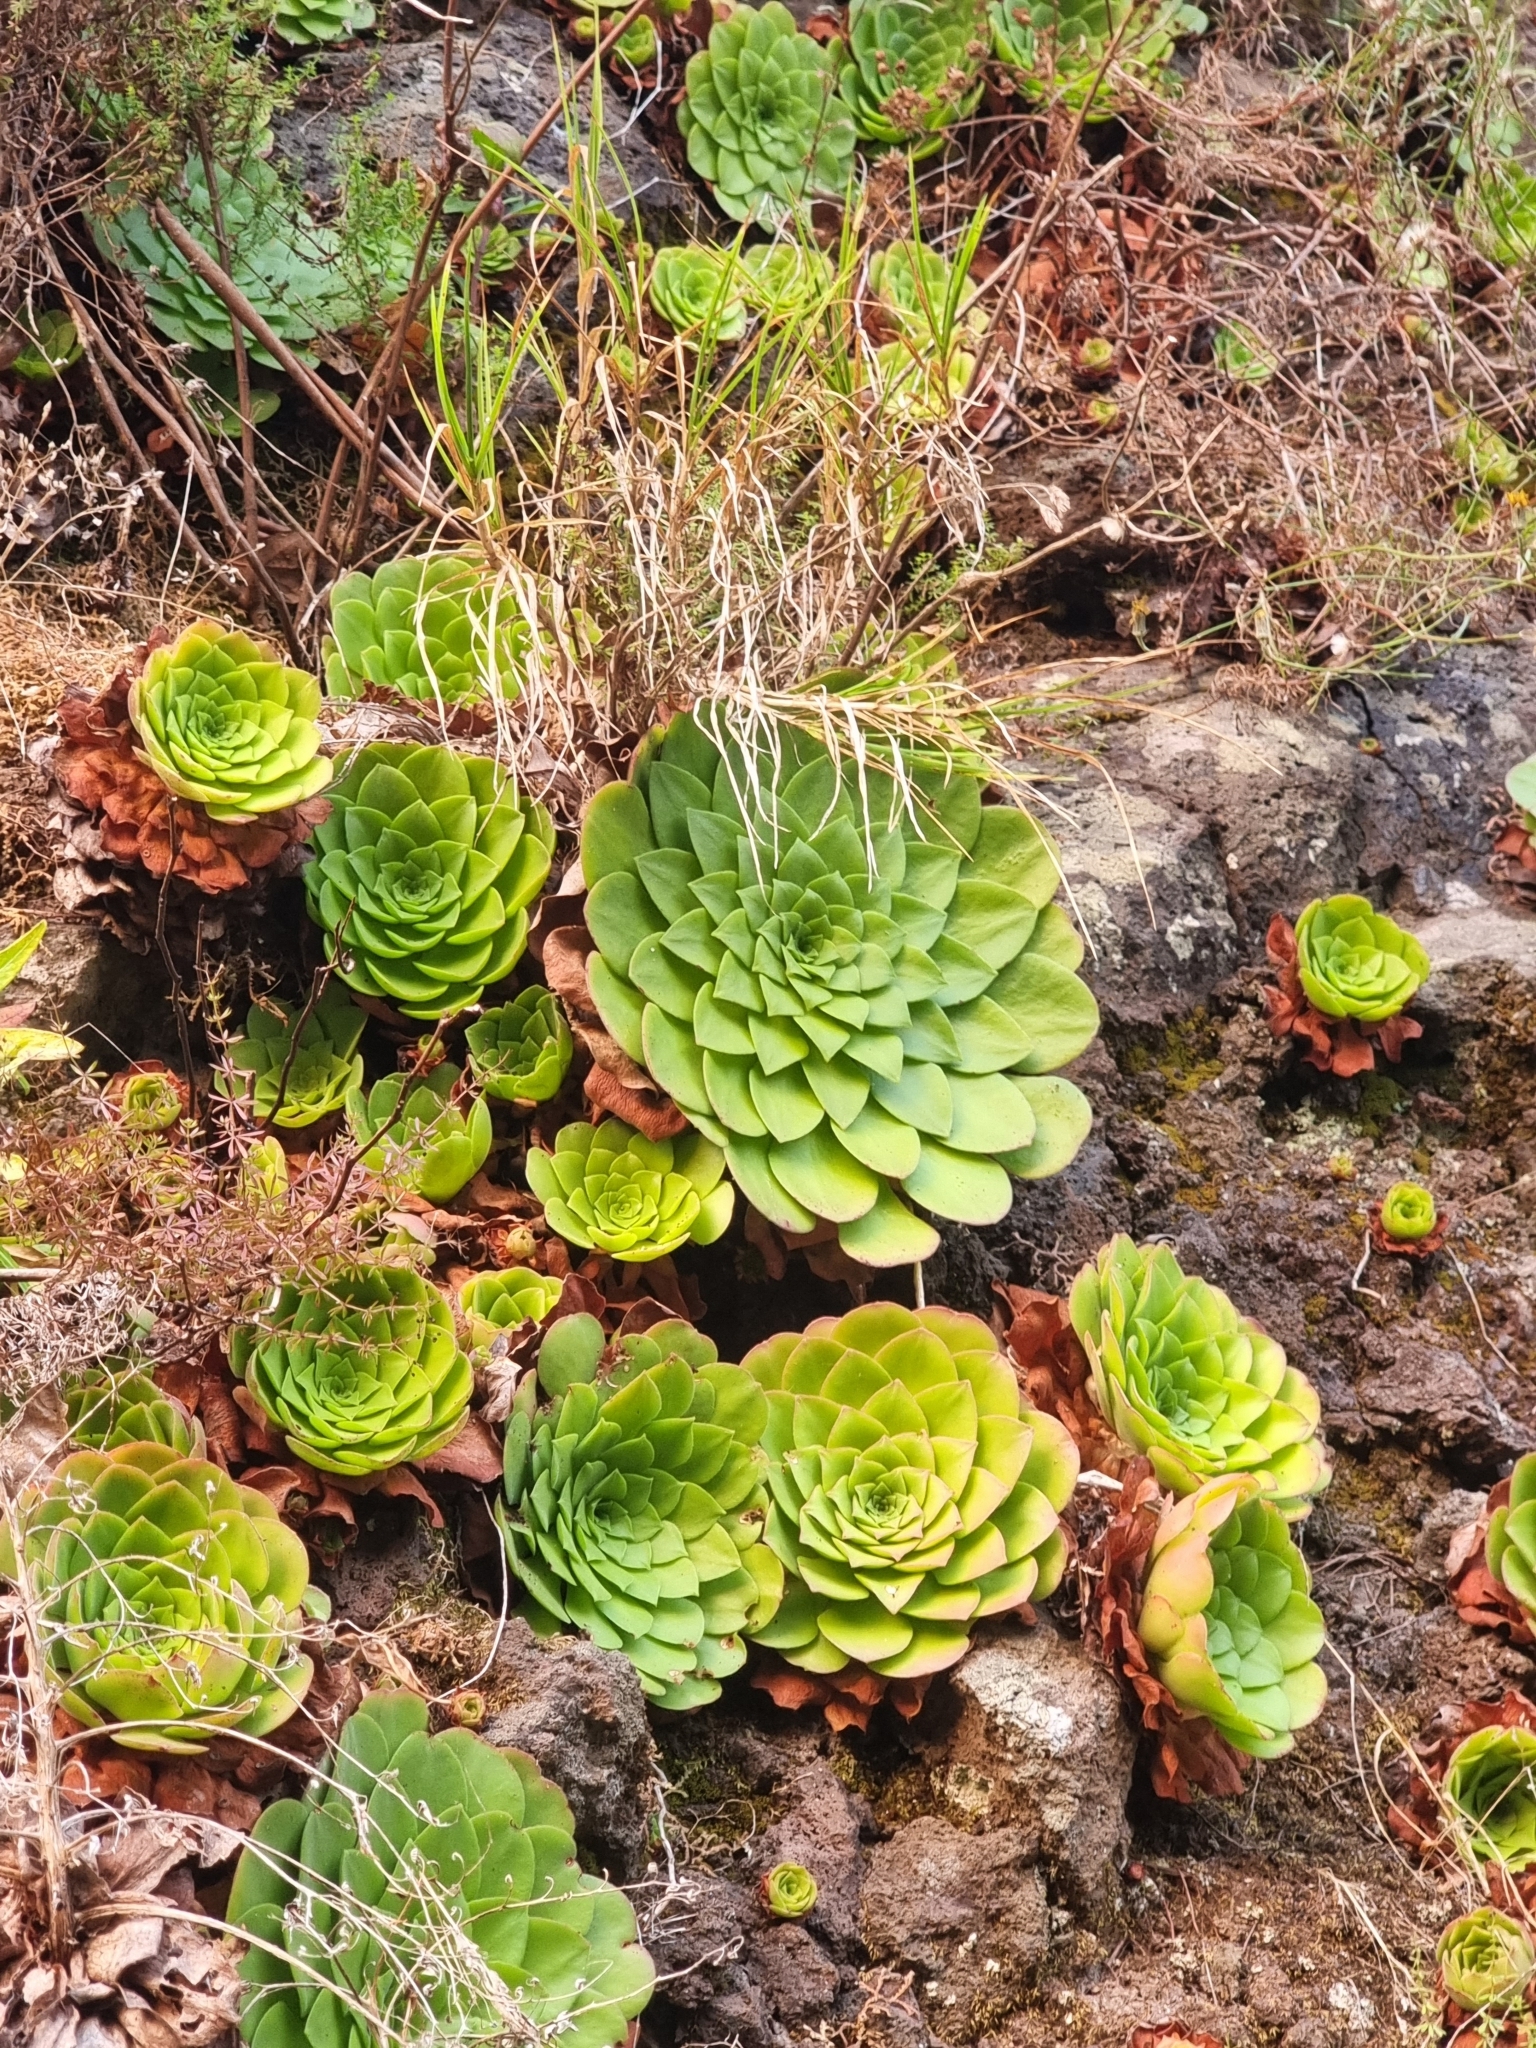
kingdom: Plantae
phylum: Tracheophyta
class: Magnoliopsida
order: Saxifragales
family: Crassulaceae
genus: Aeonium
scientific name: Aeonium glandulosum
